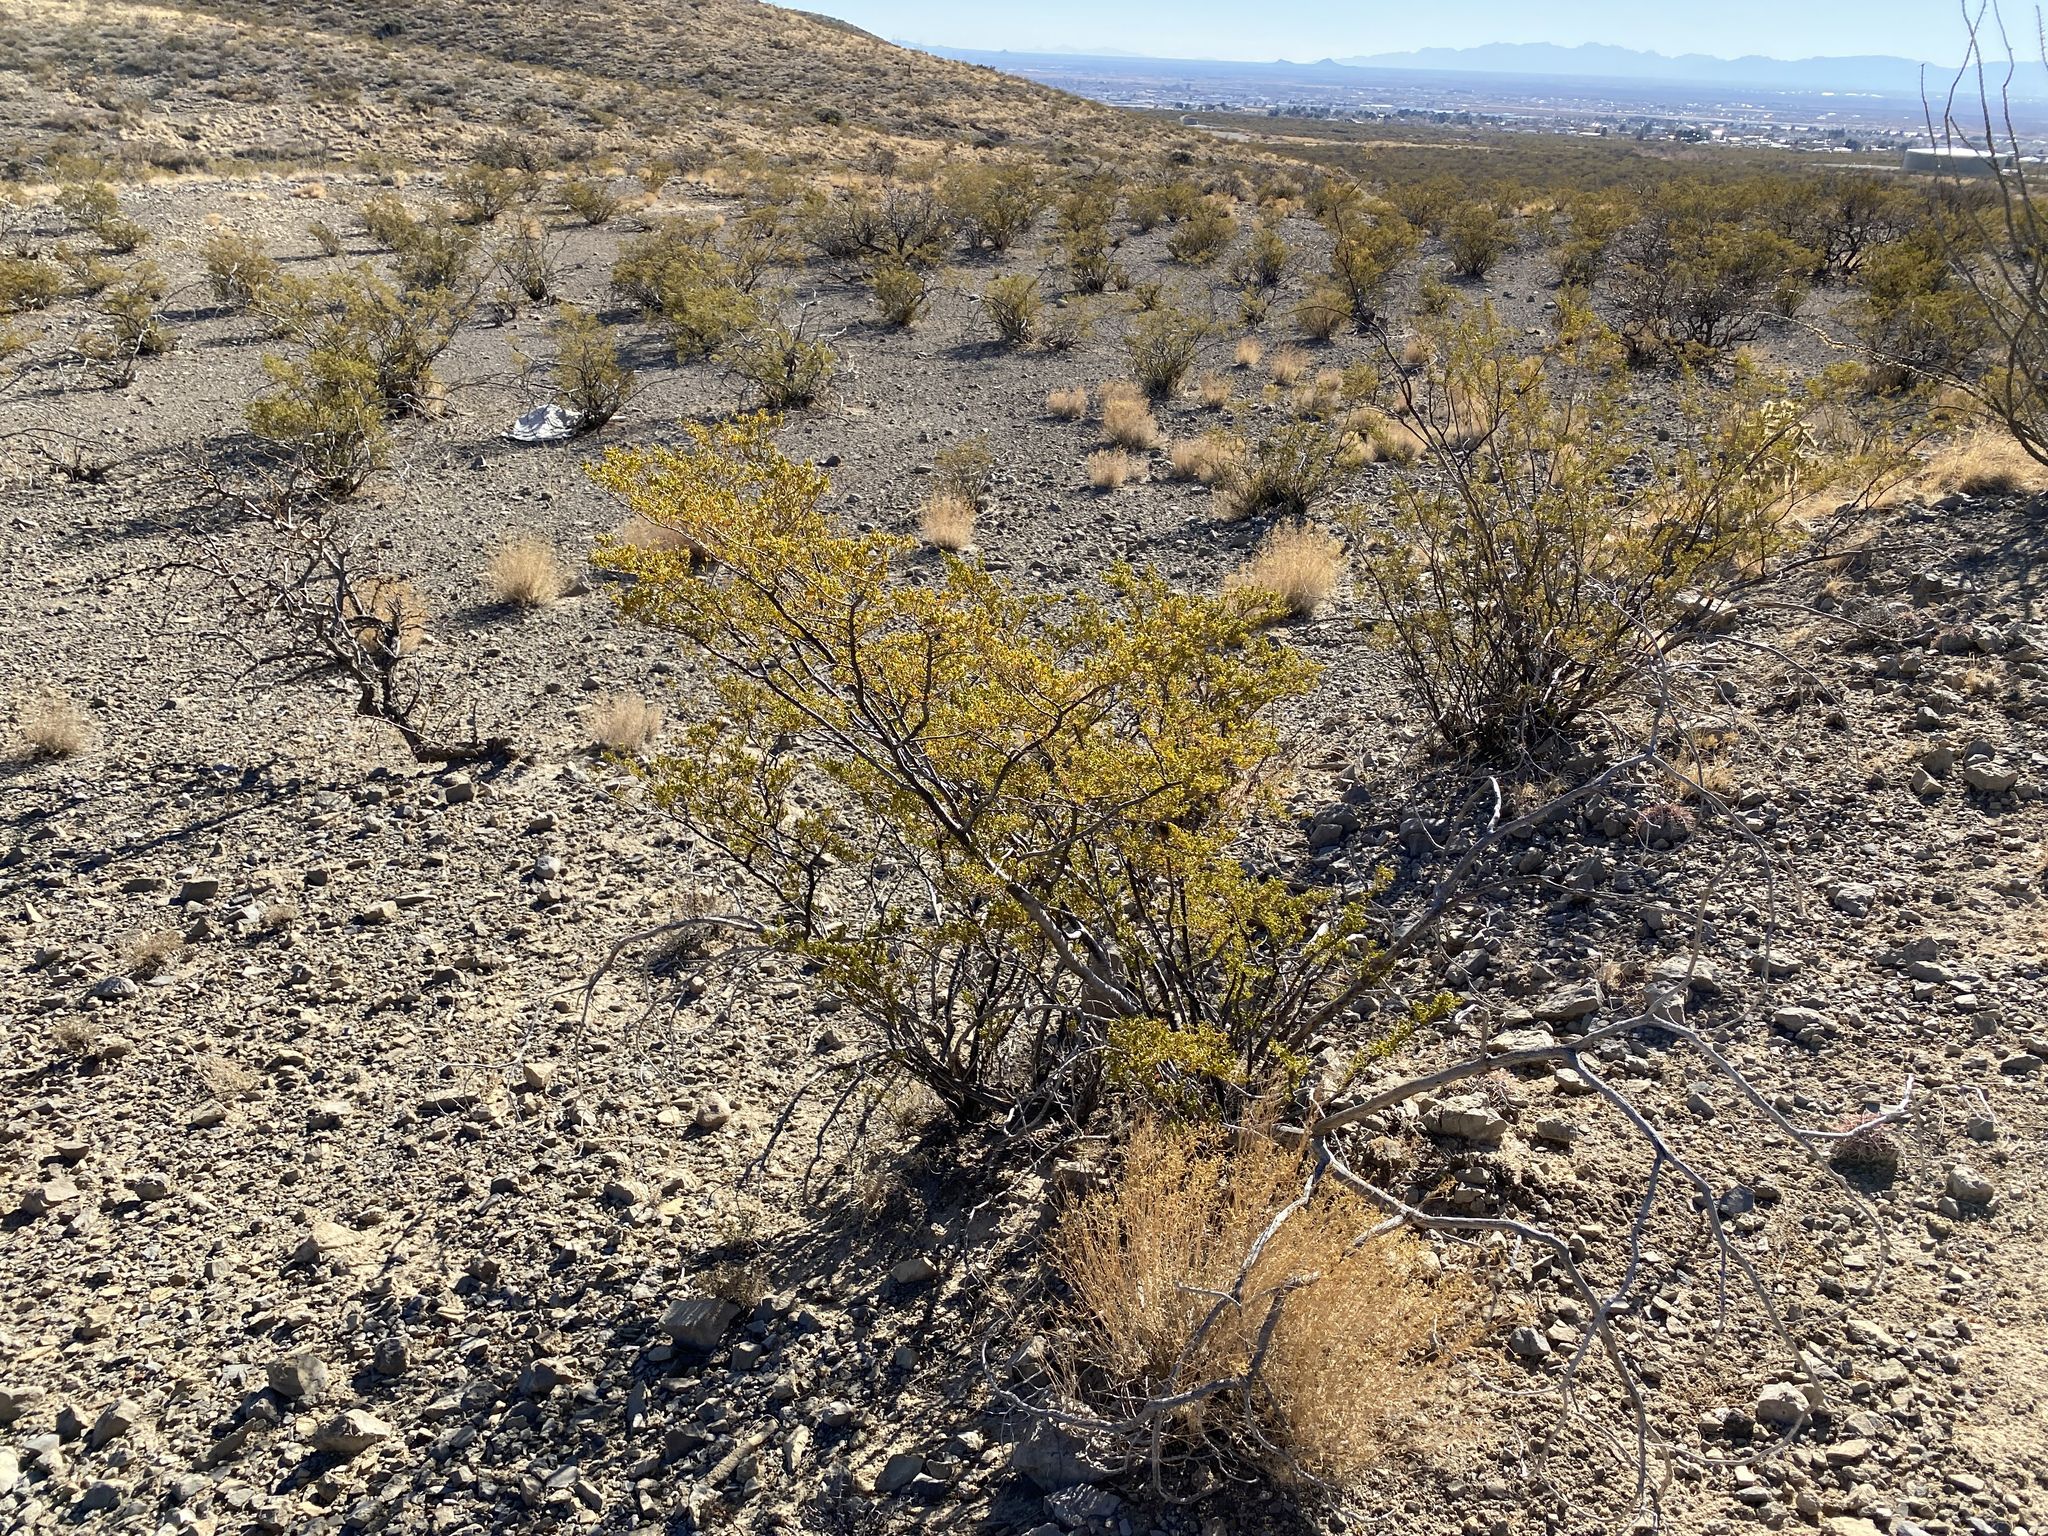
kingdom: Plantae
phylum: Tracheophyta
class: Magnoliopsida
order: Zygophyllales
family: Zygophyllaceae
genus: Larrea
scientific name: Larrea tridentata
